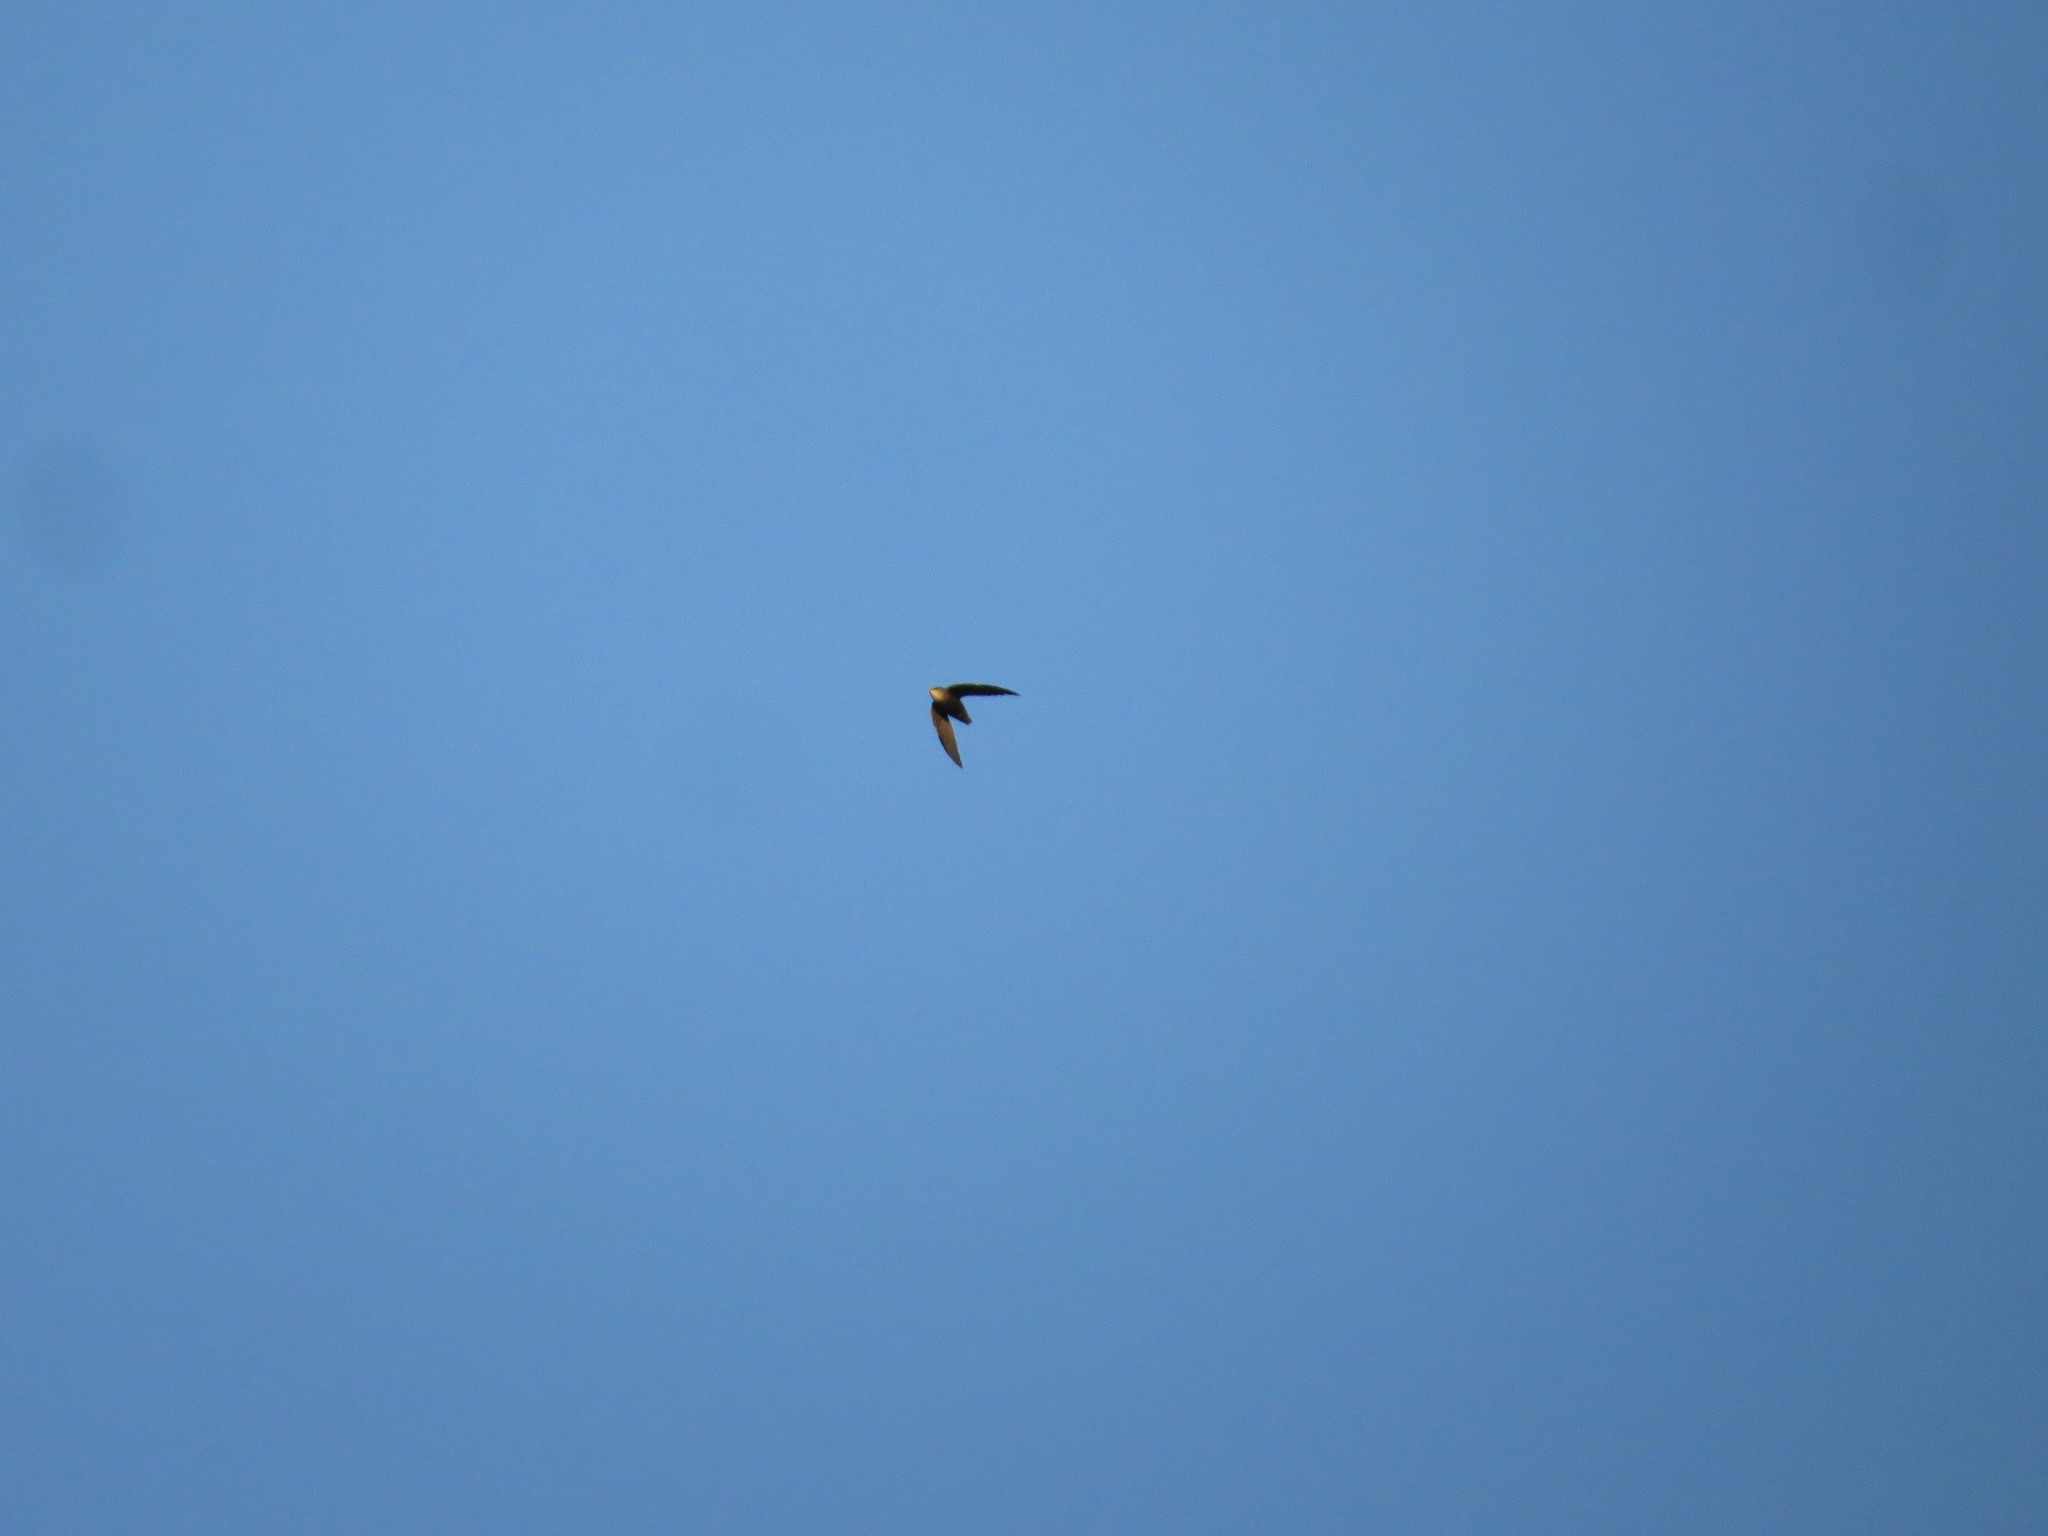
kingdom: Animalia
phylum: Chordata
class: Aves
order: Apodiformes
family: Apodidae
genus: Chaetura
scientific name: Chaetura meridionalis
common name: Sick's swift
